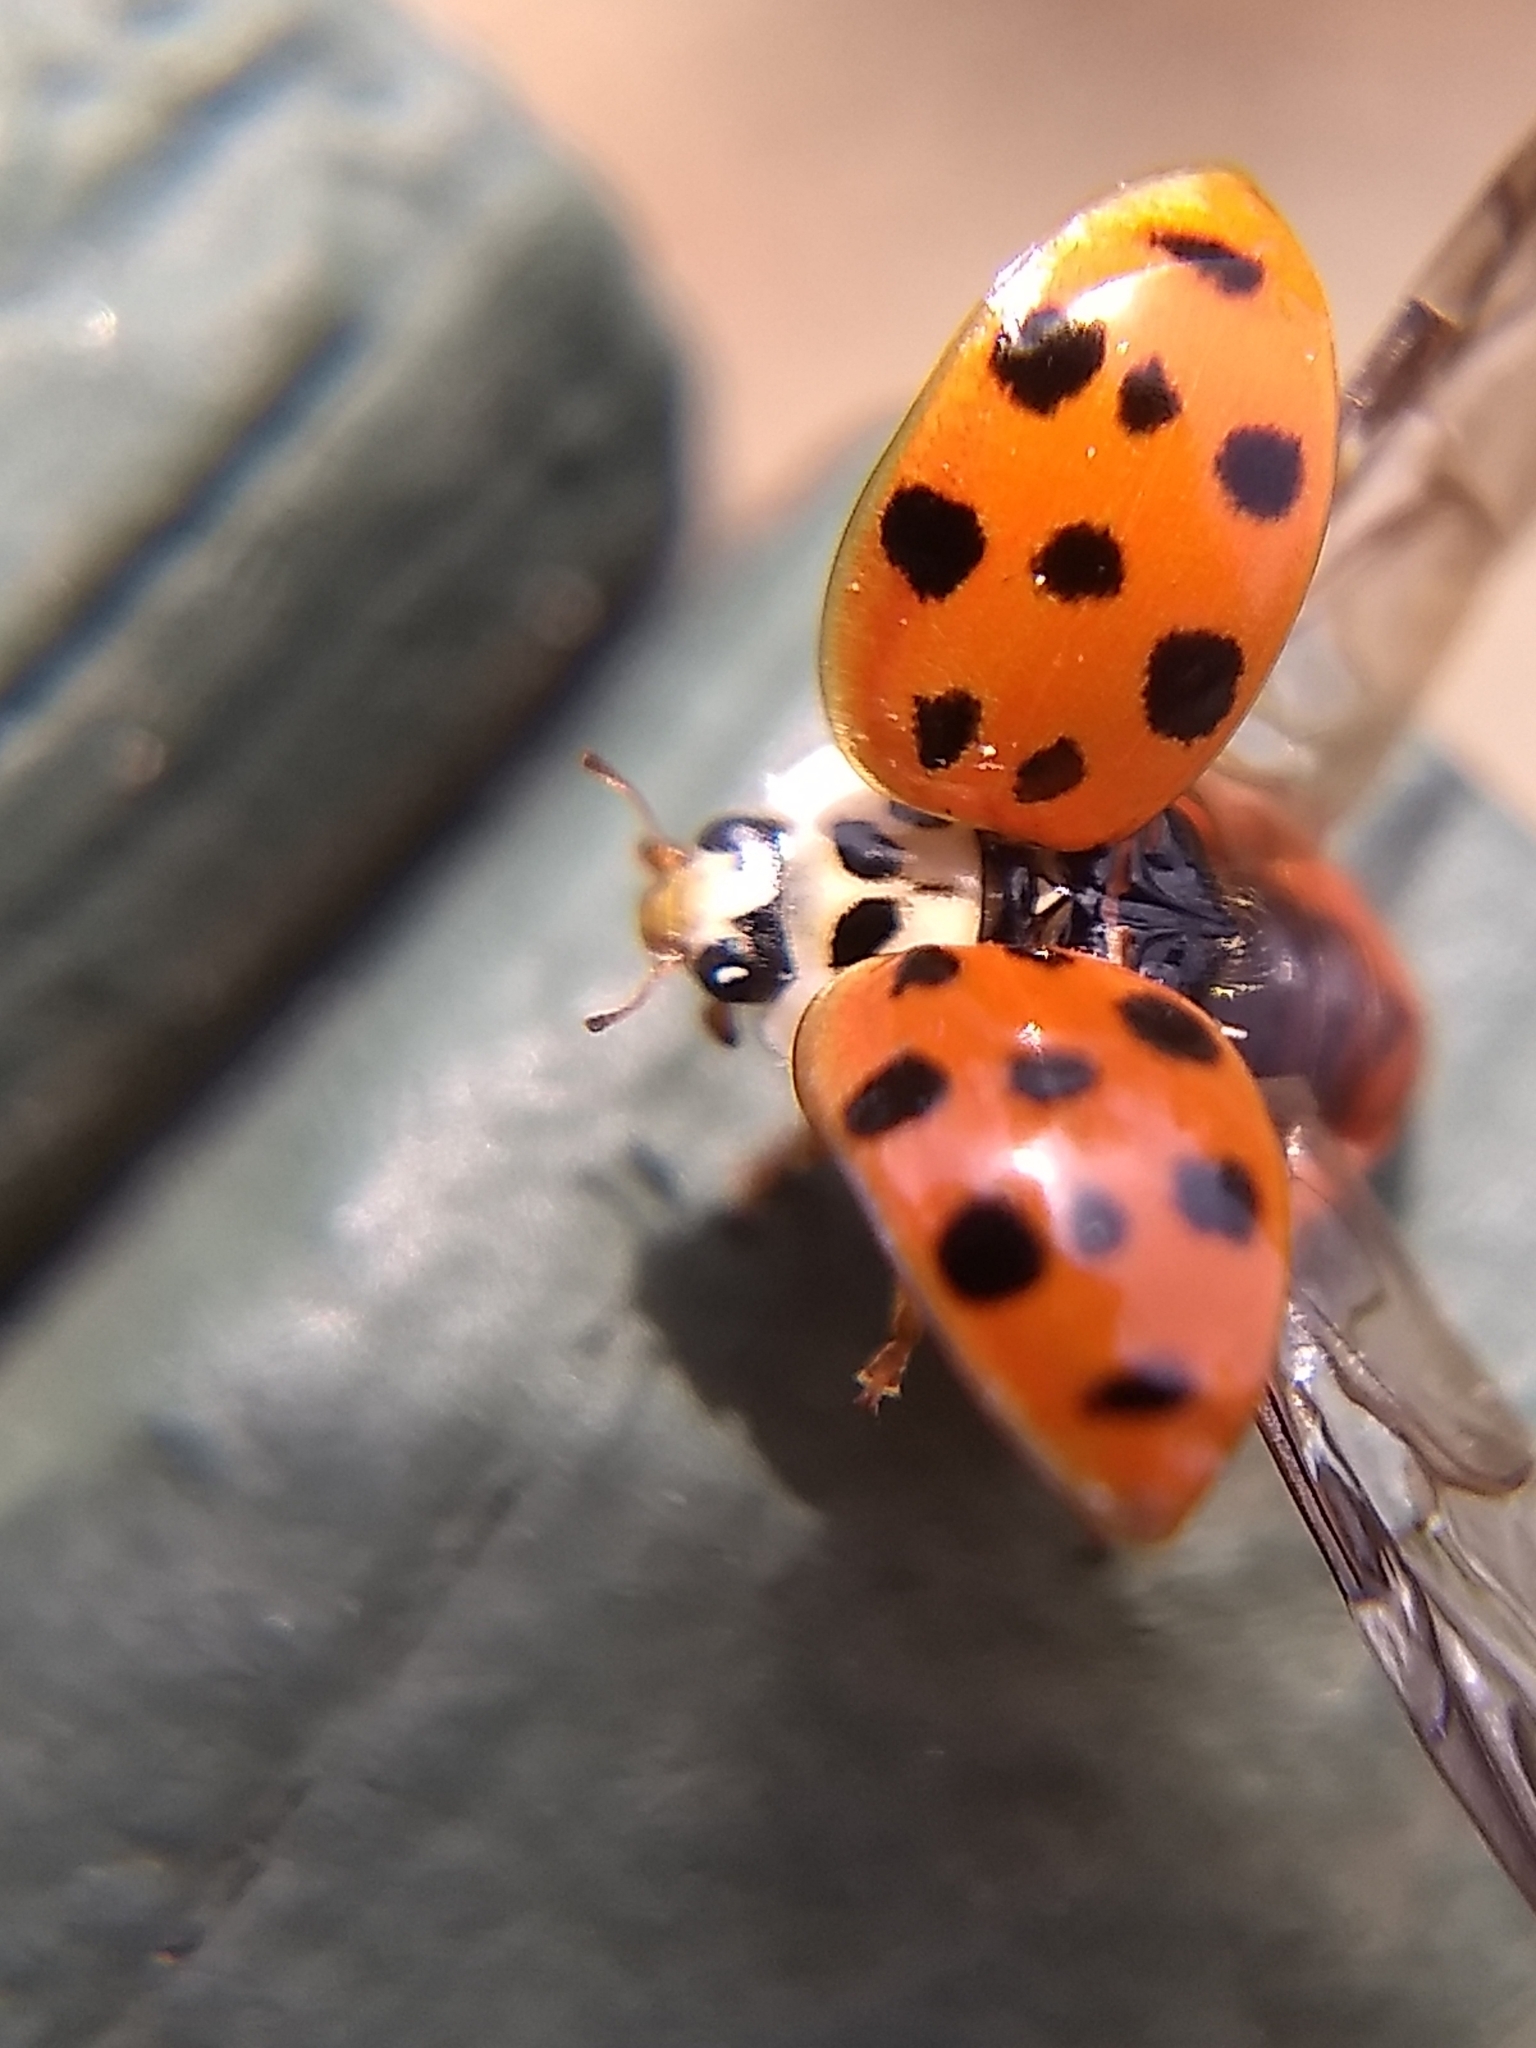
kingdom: Animalia
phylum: Arthropoda
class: Insecta
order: Coleoptera
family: Coccinellidae
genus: Harmonia
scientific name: Harmonia axyridis
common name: Harlequin ladybird
